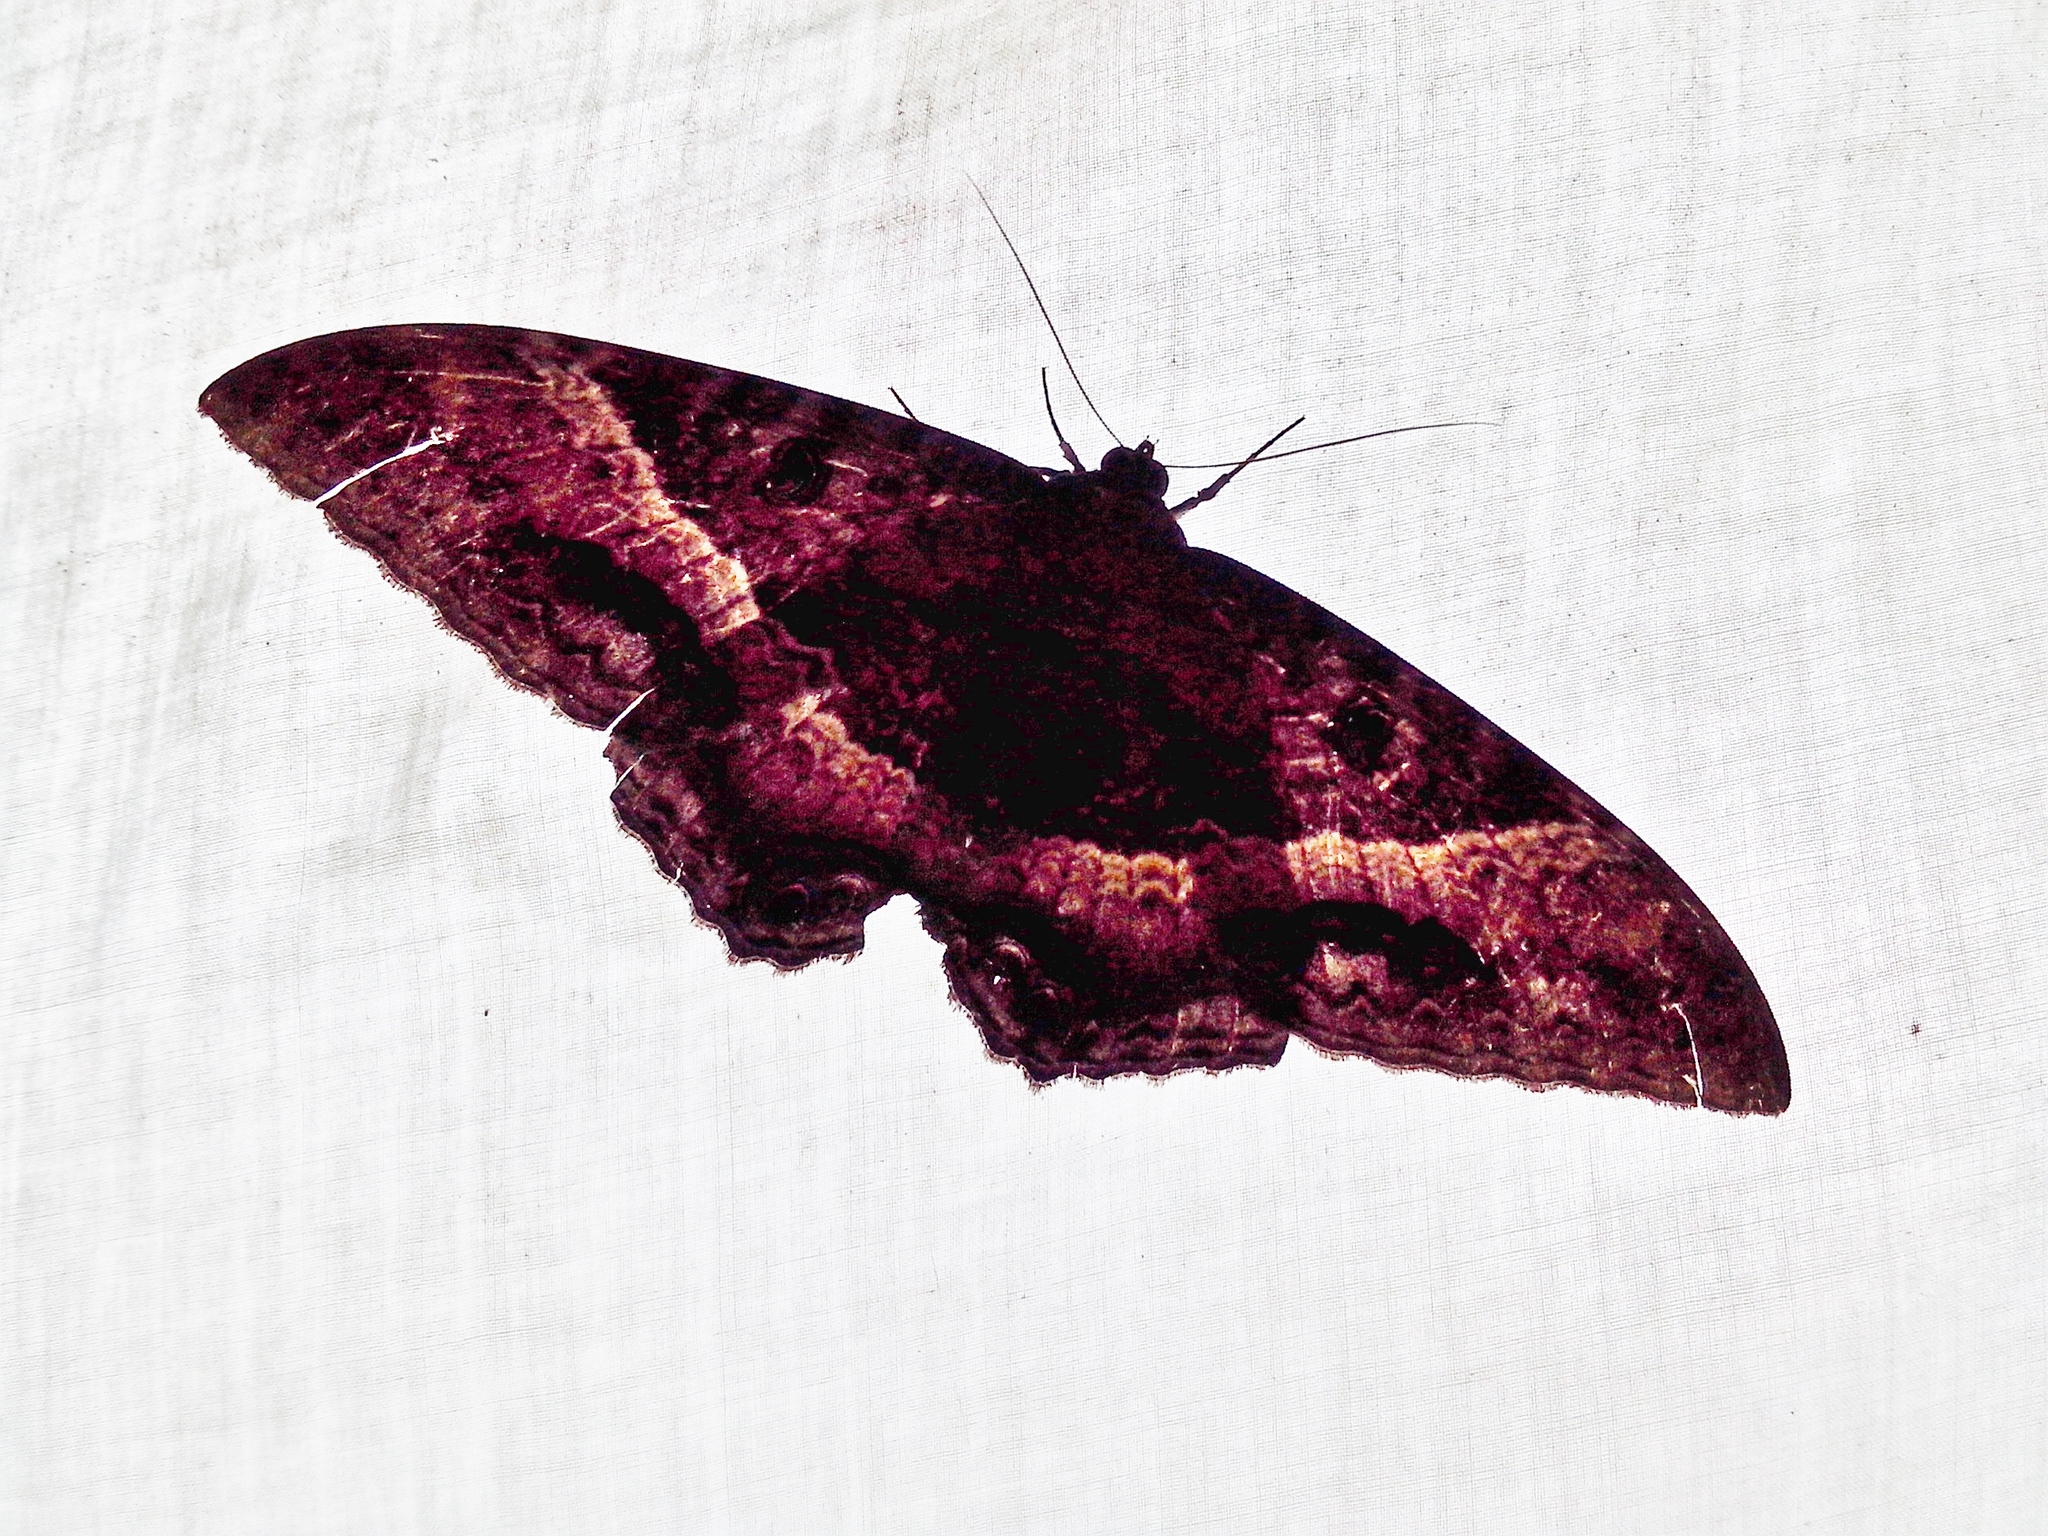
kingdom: Animalia
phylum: Arthropoda
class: Insecta
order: Lepidoptera
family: Erebidae
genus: Ascalapha
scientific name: Ascalapha odorata
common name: Black witch
